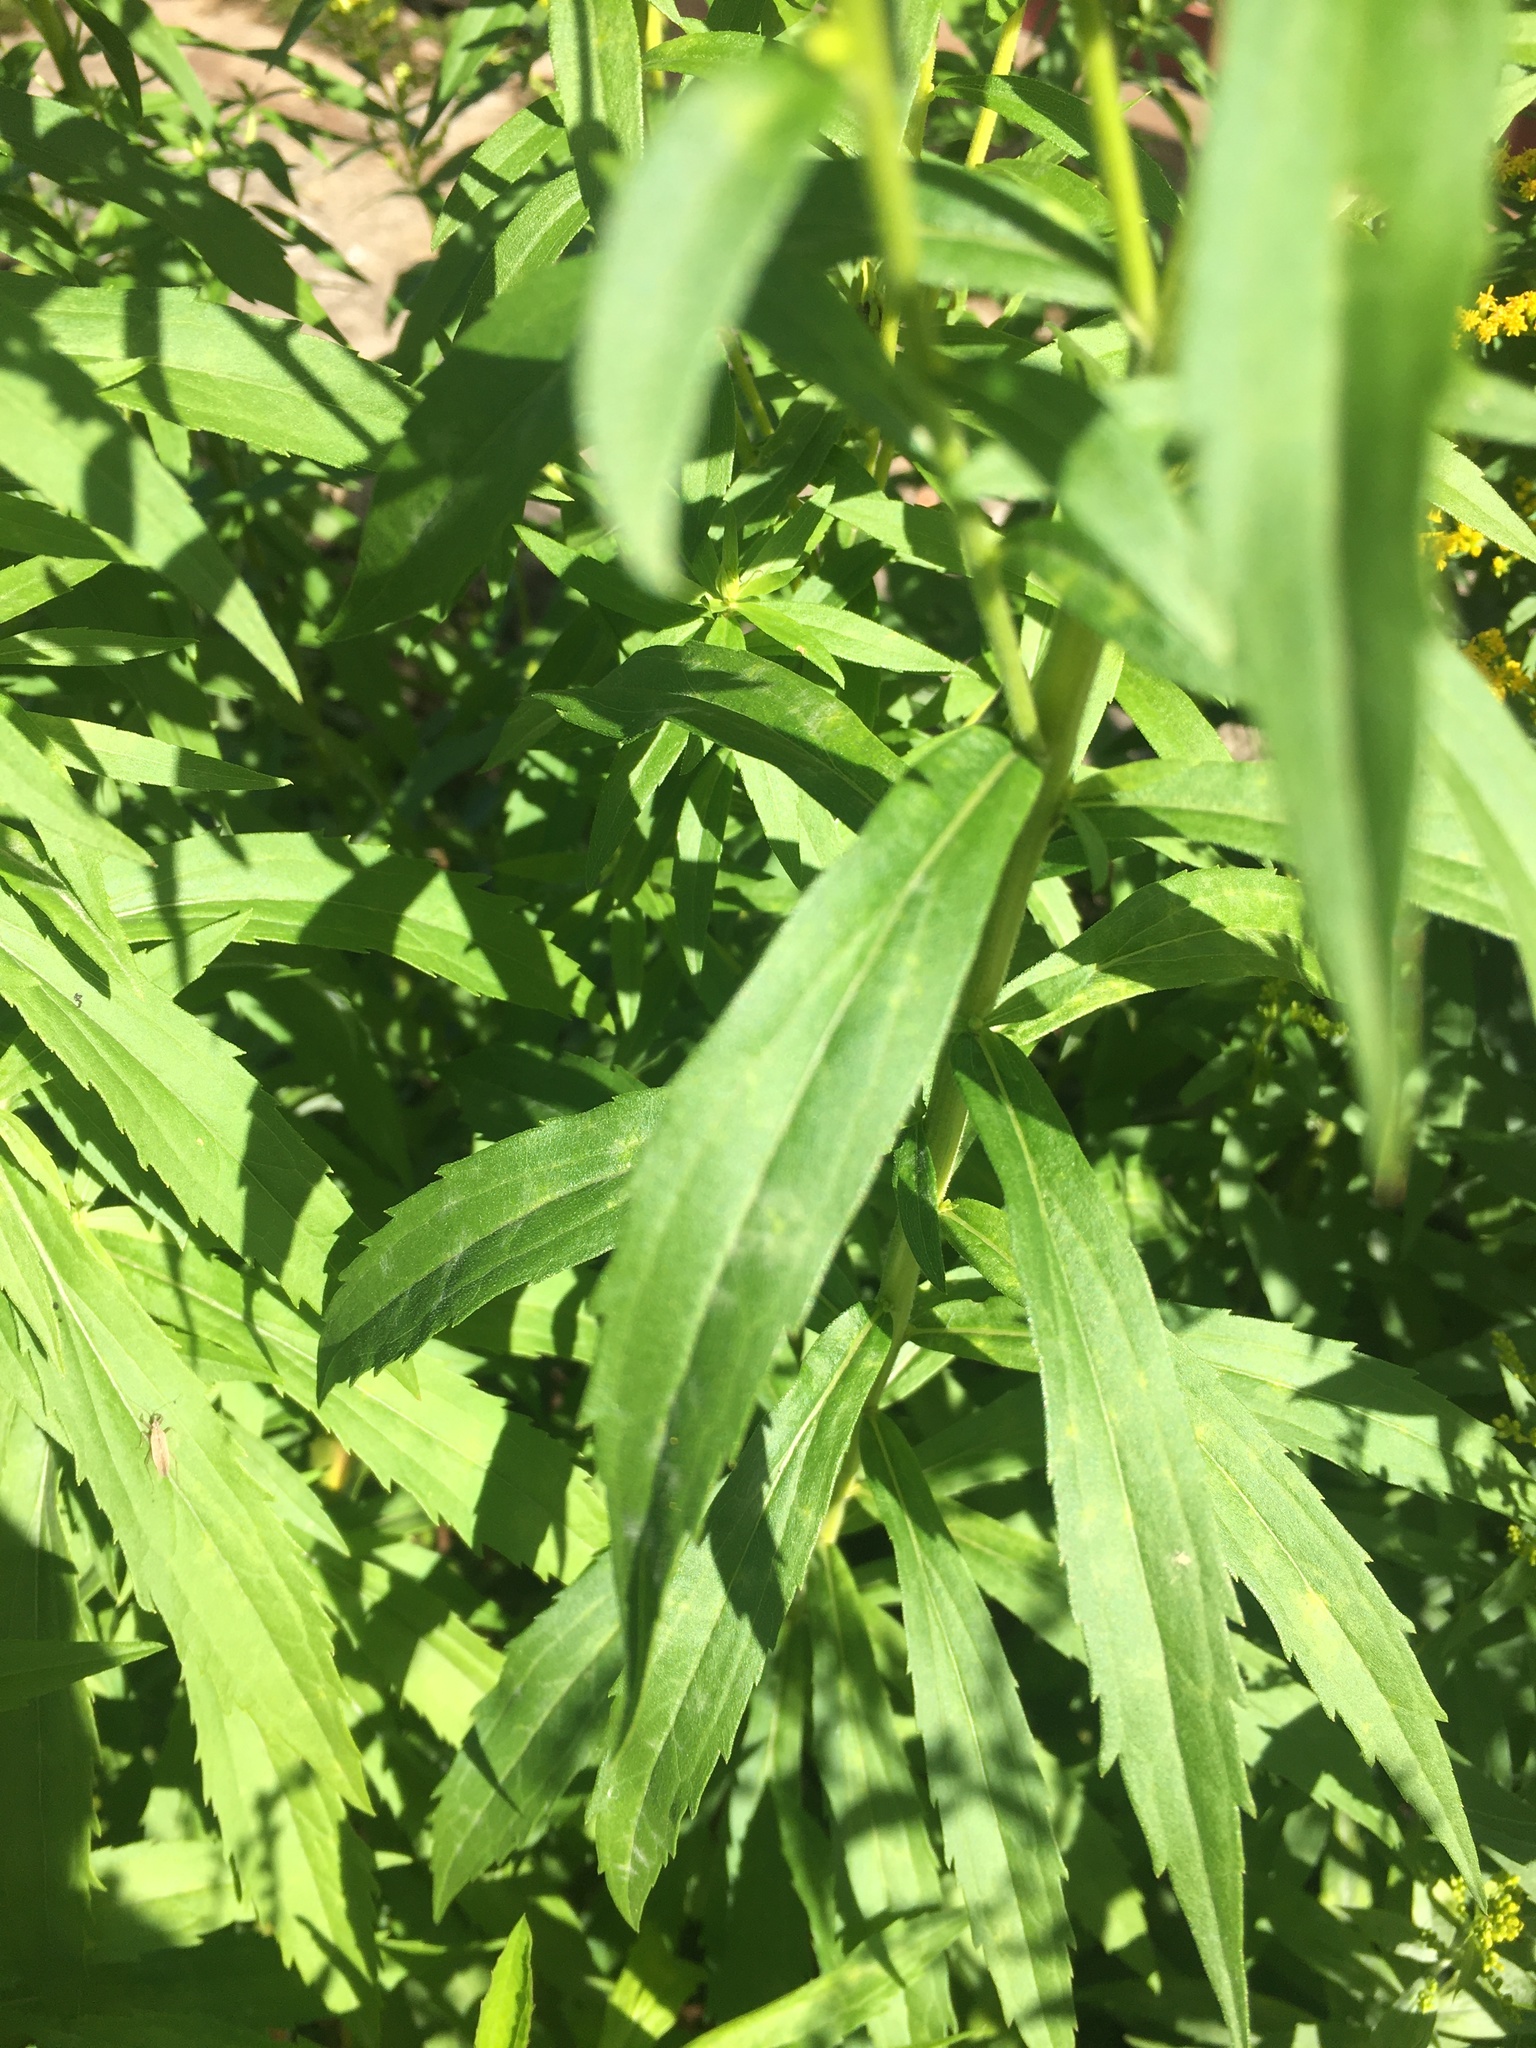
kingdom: Plantae
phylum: Tracheophyta
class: Magnoliopsida
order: Asterales
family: Asteraceae
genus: Solidago
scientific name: Solidago canadensis
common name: Canada goldenrod
